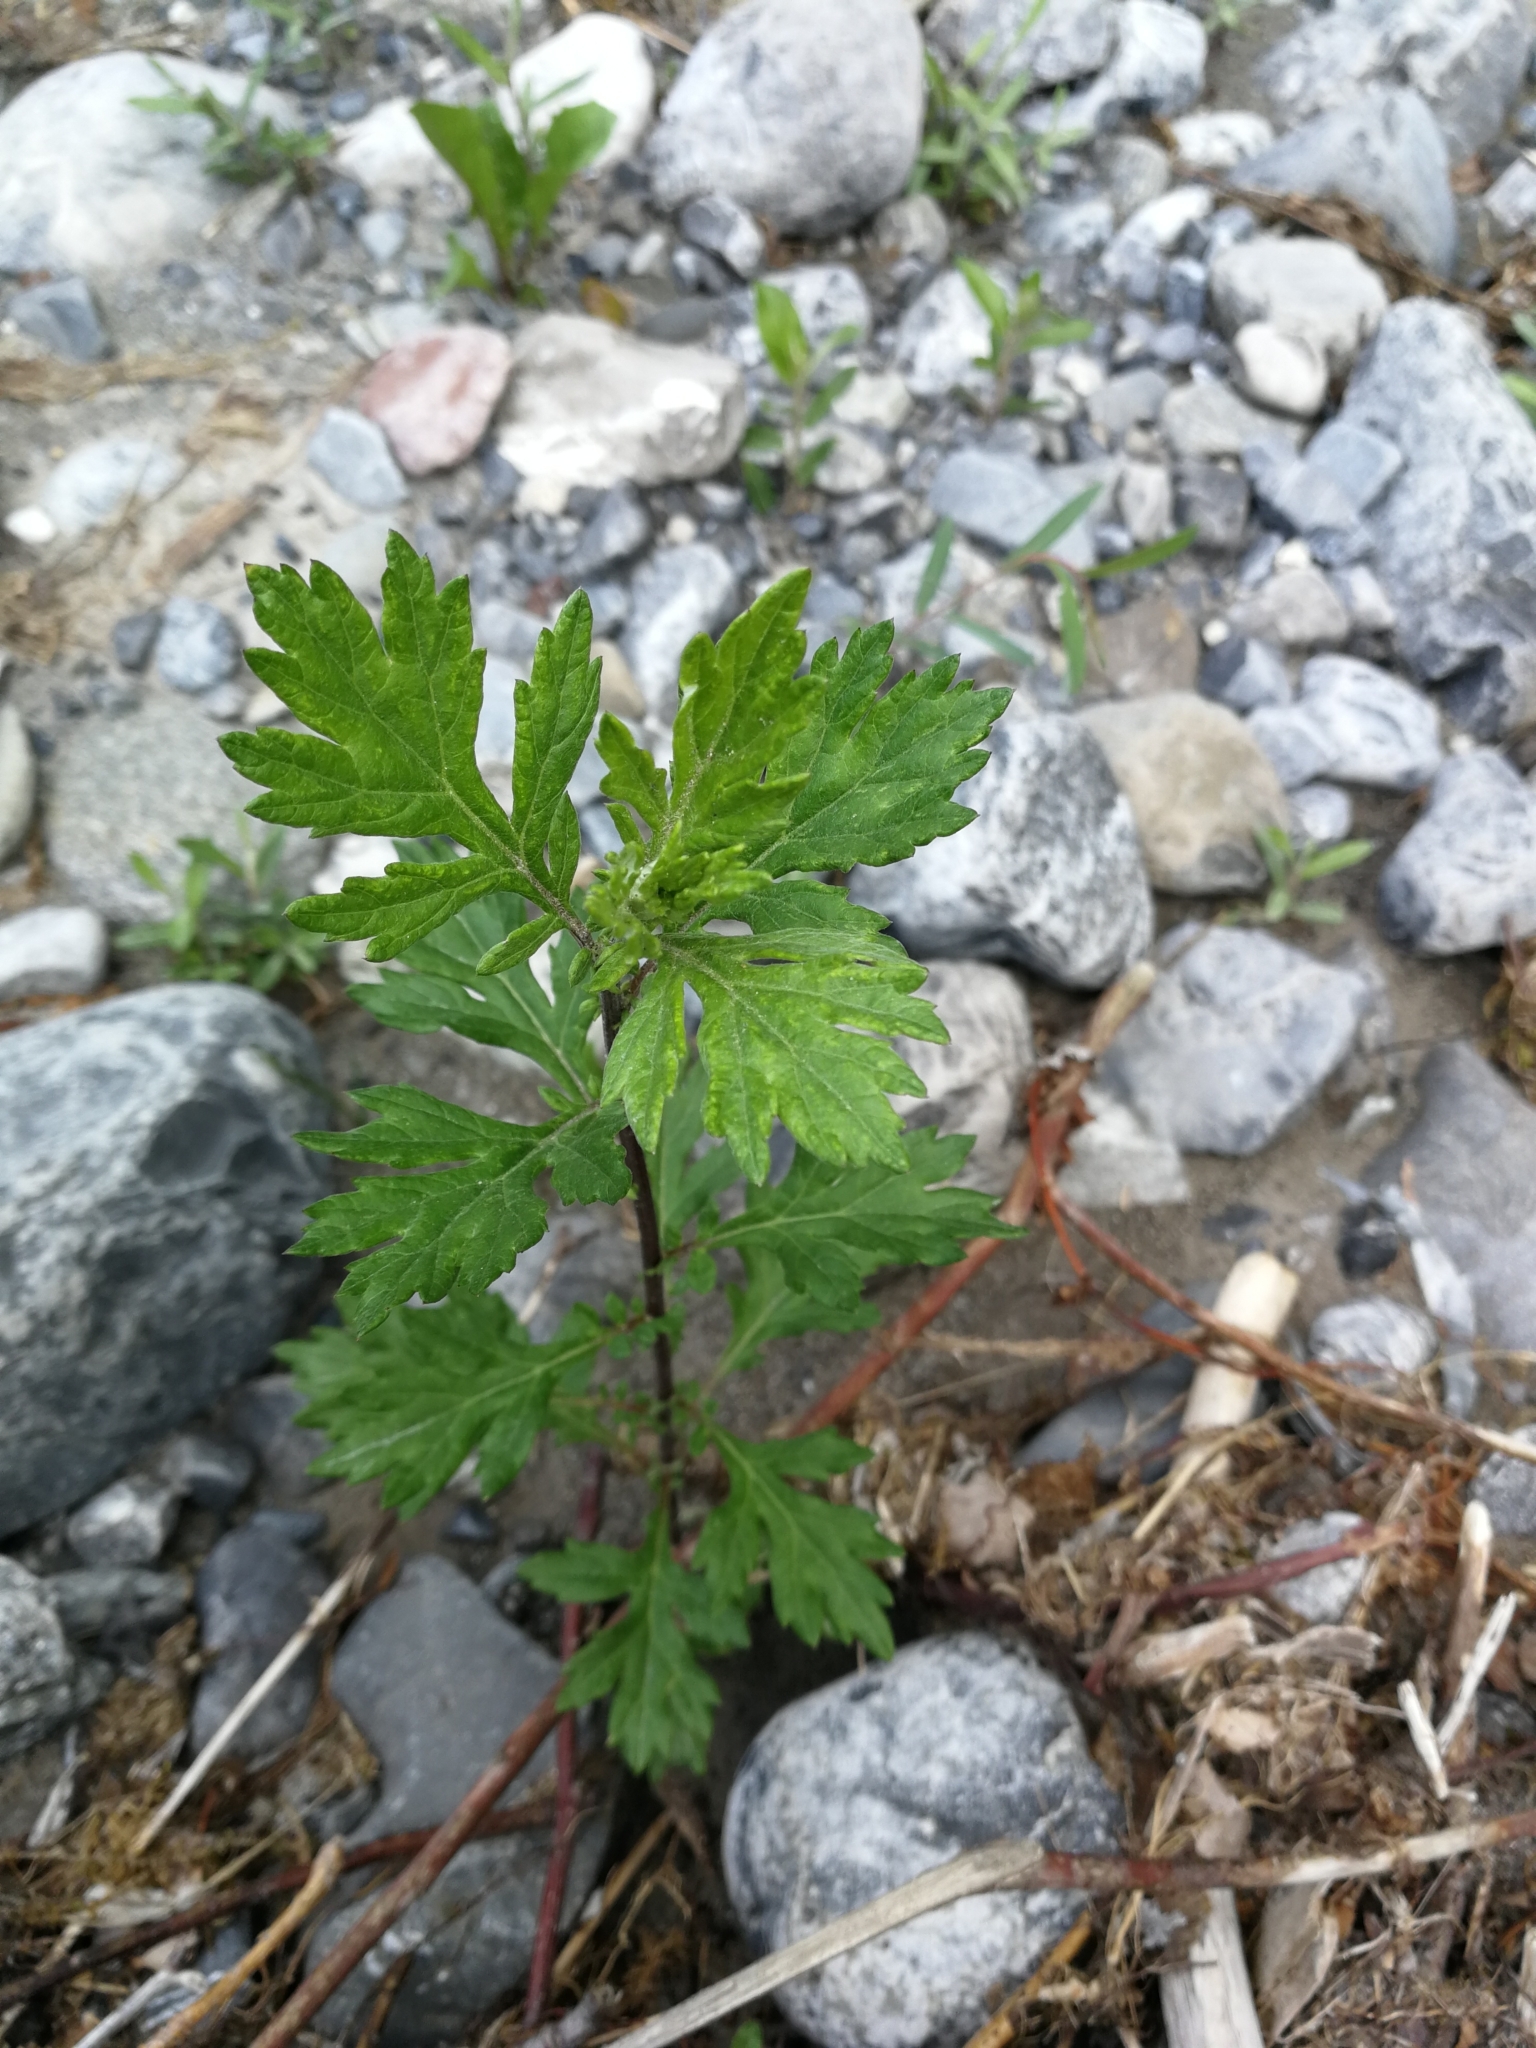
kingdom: Plantae
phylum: Tracheophyta
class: Magnoliopsida
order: Asterales
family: Asteraceae
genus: Artemisia
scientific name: Artemisia vulgaris
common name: Mugwort
